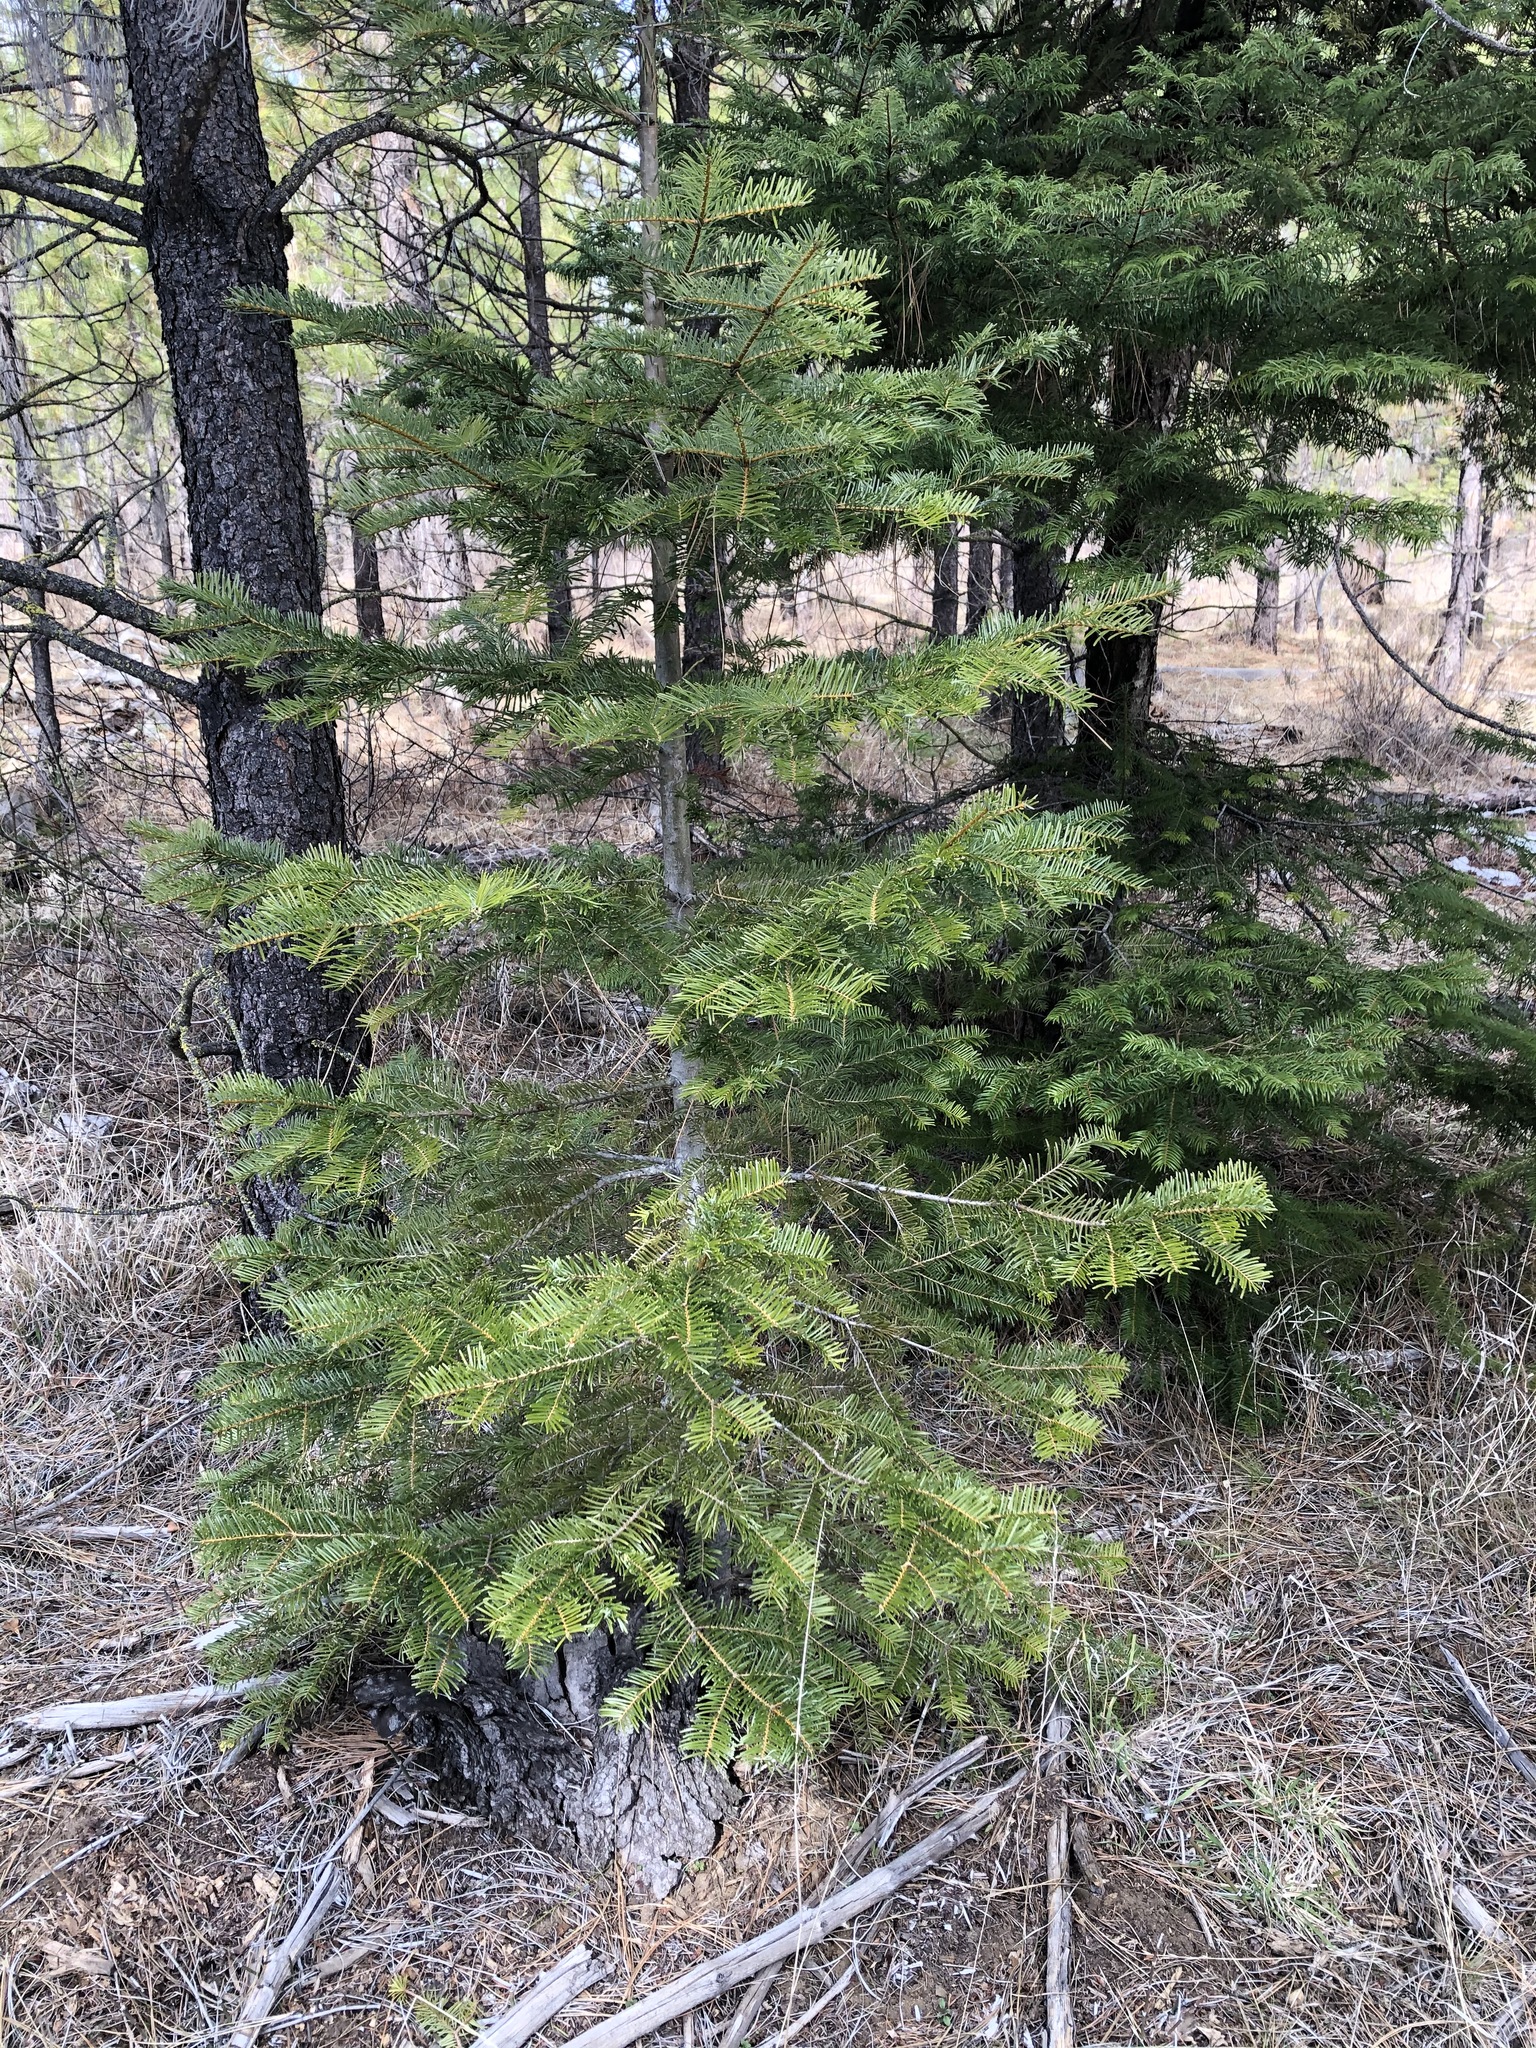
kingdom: Plantae
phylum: Tracheophyta
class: Pinopsida
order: Pinales
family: Pinaceae
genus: Abies
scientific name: Abies grandis
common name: Giant fir
